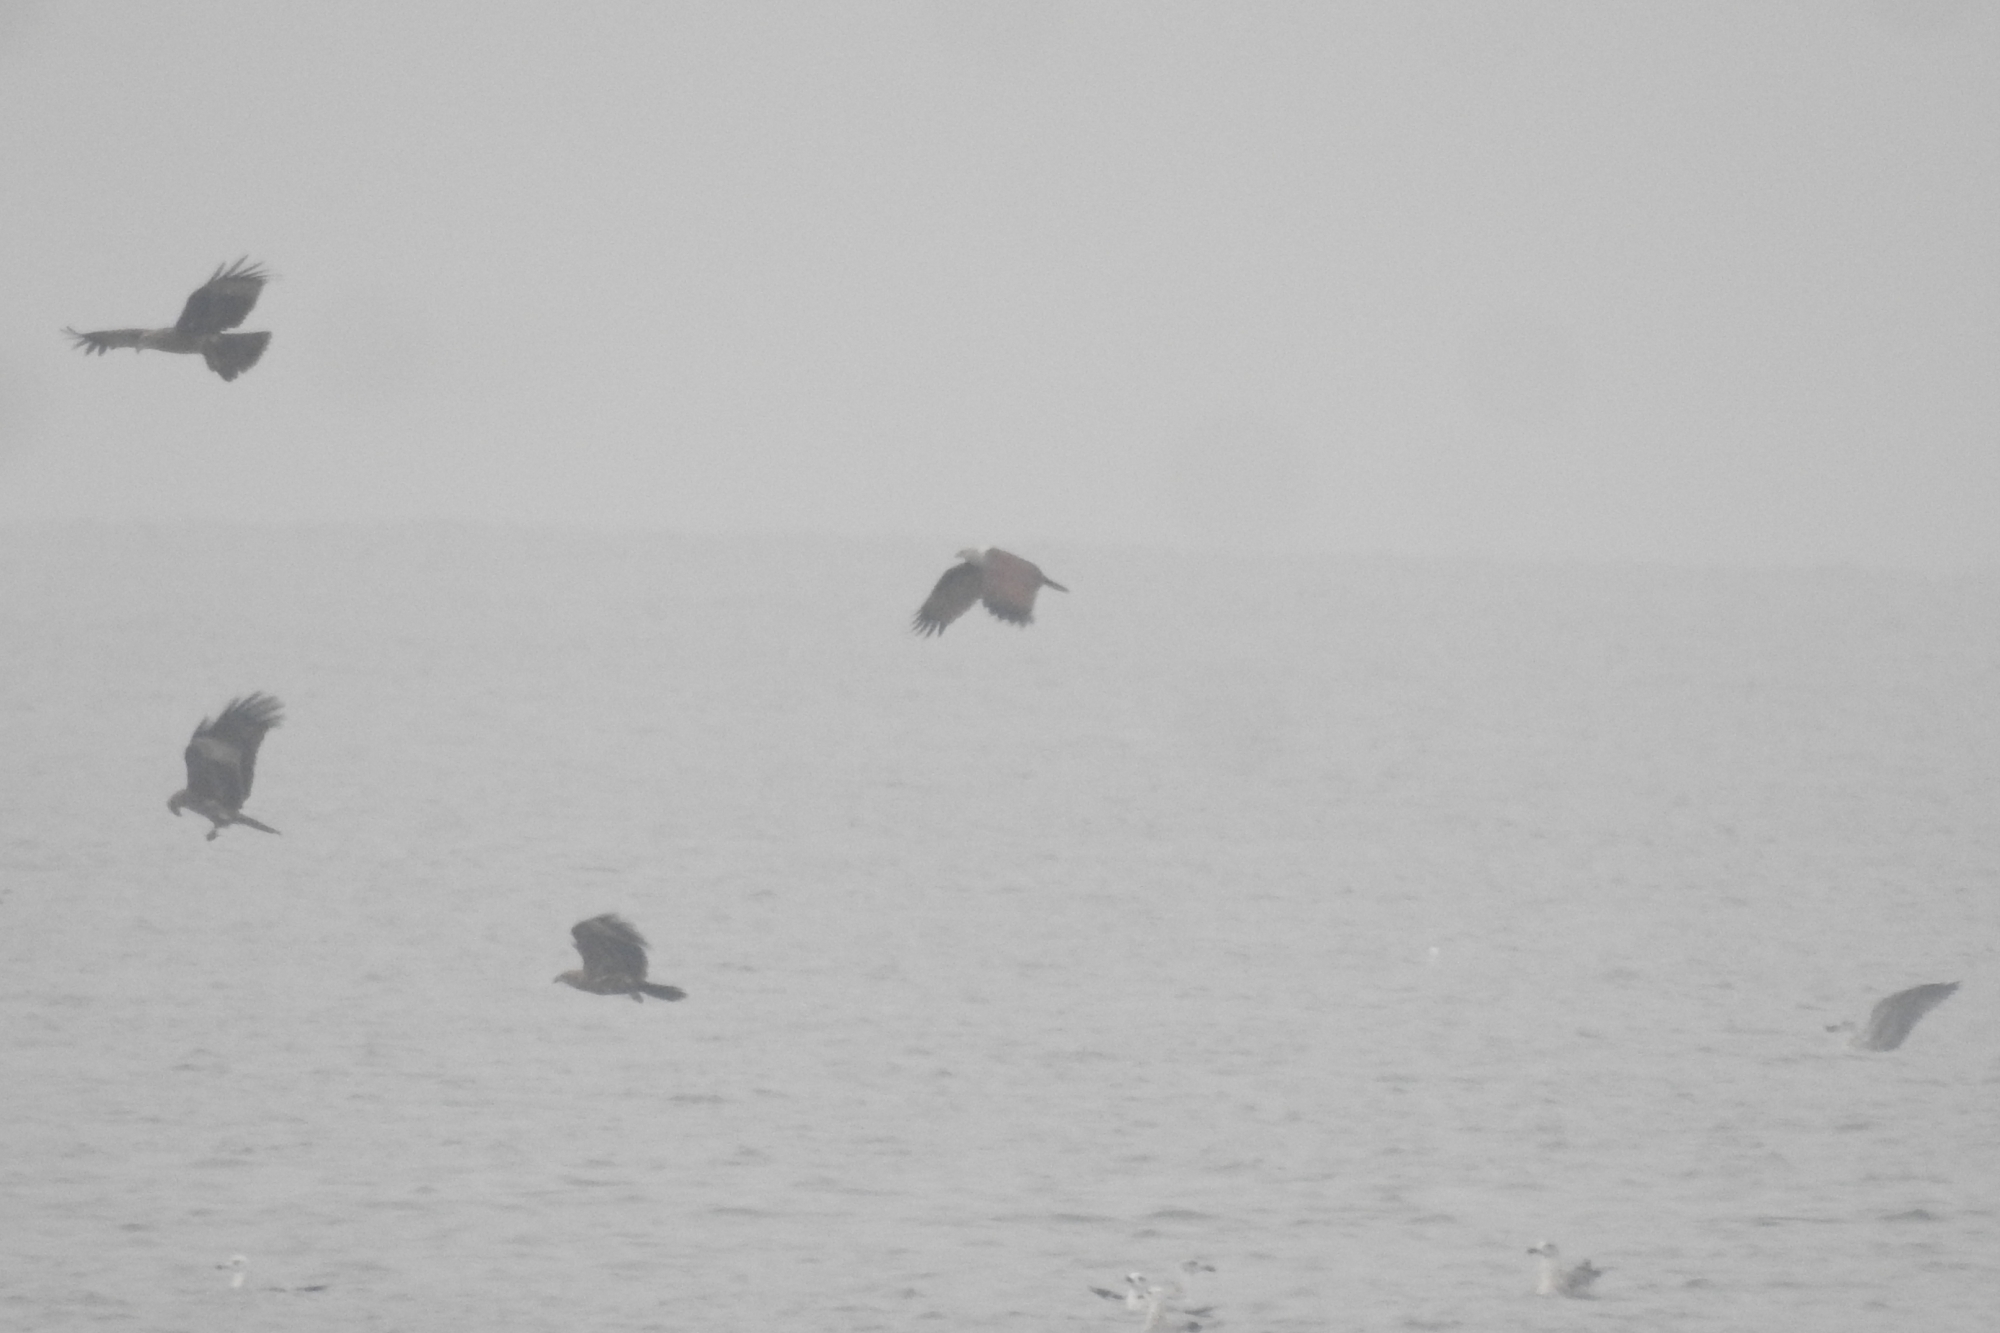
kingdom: Animalia
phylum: Chordata
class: Aves
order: Accipitriformes
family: Accipitridae
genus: Haliastur
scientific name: Haliastur indus
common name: Brahminy kite
